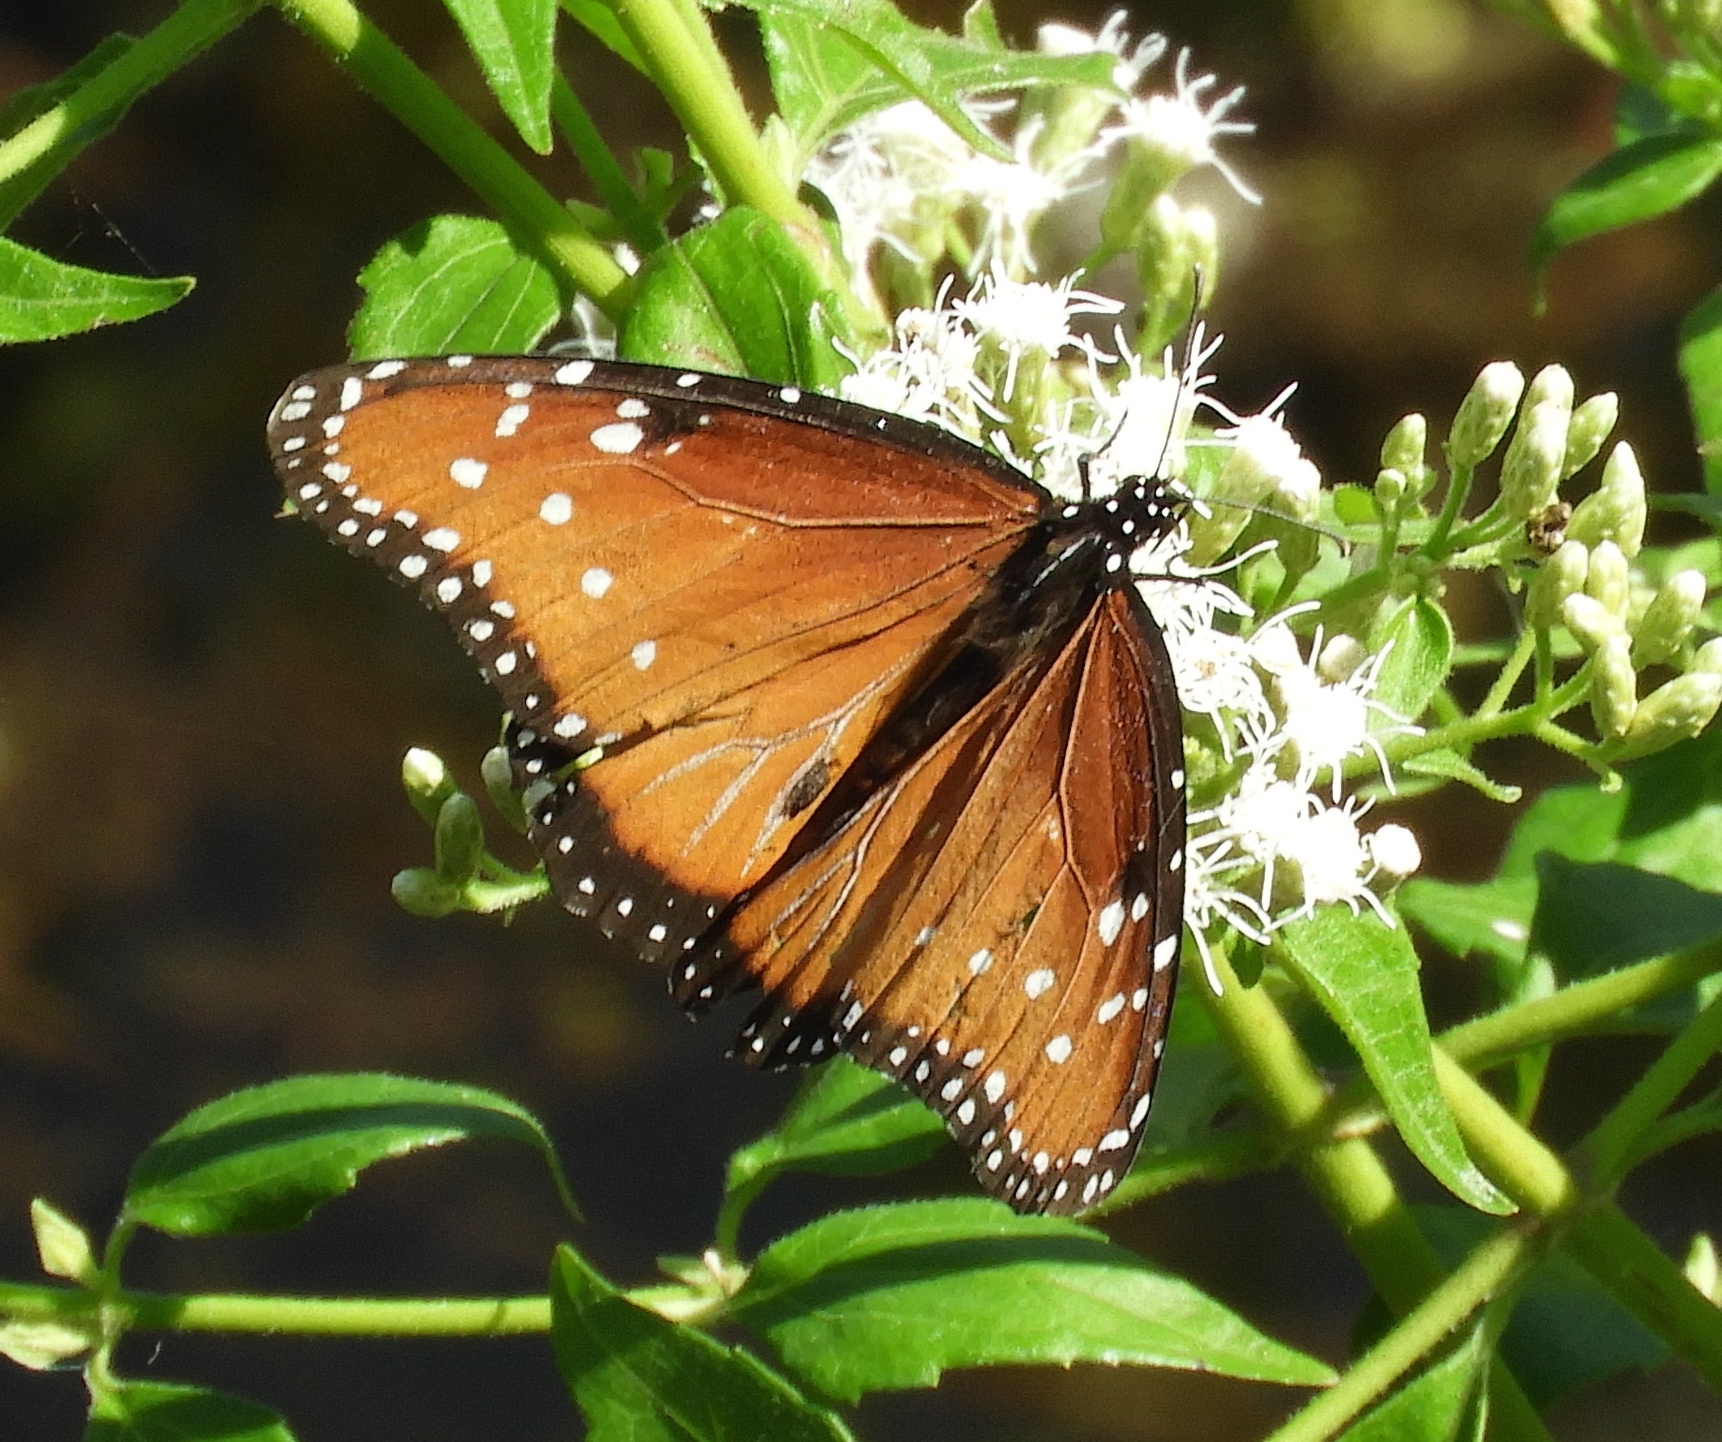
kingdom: Animalia
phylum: Arthropoda
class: Insecta
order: Lepidoptera
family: Nymphalidae
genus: Danaus
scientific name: Danaus gilippus
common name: Queen
